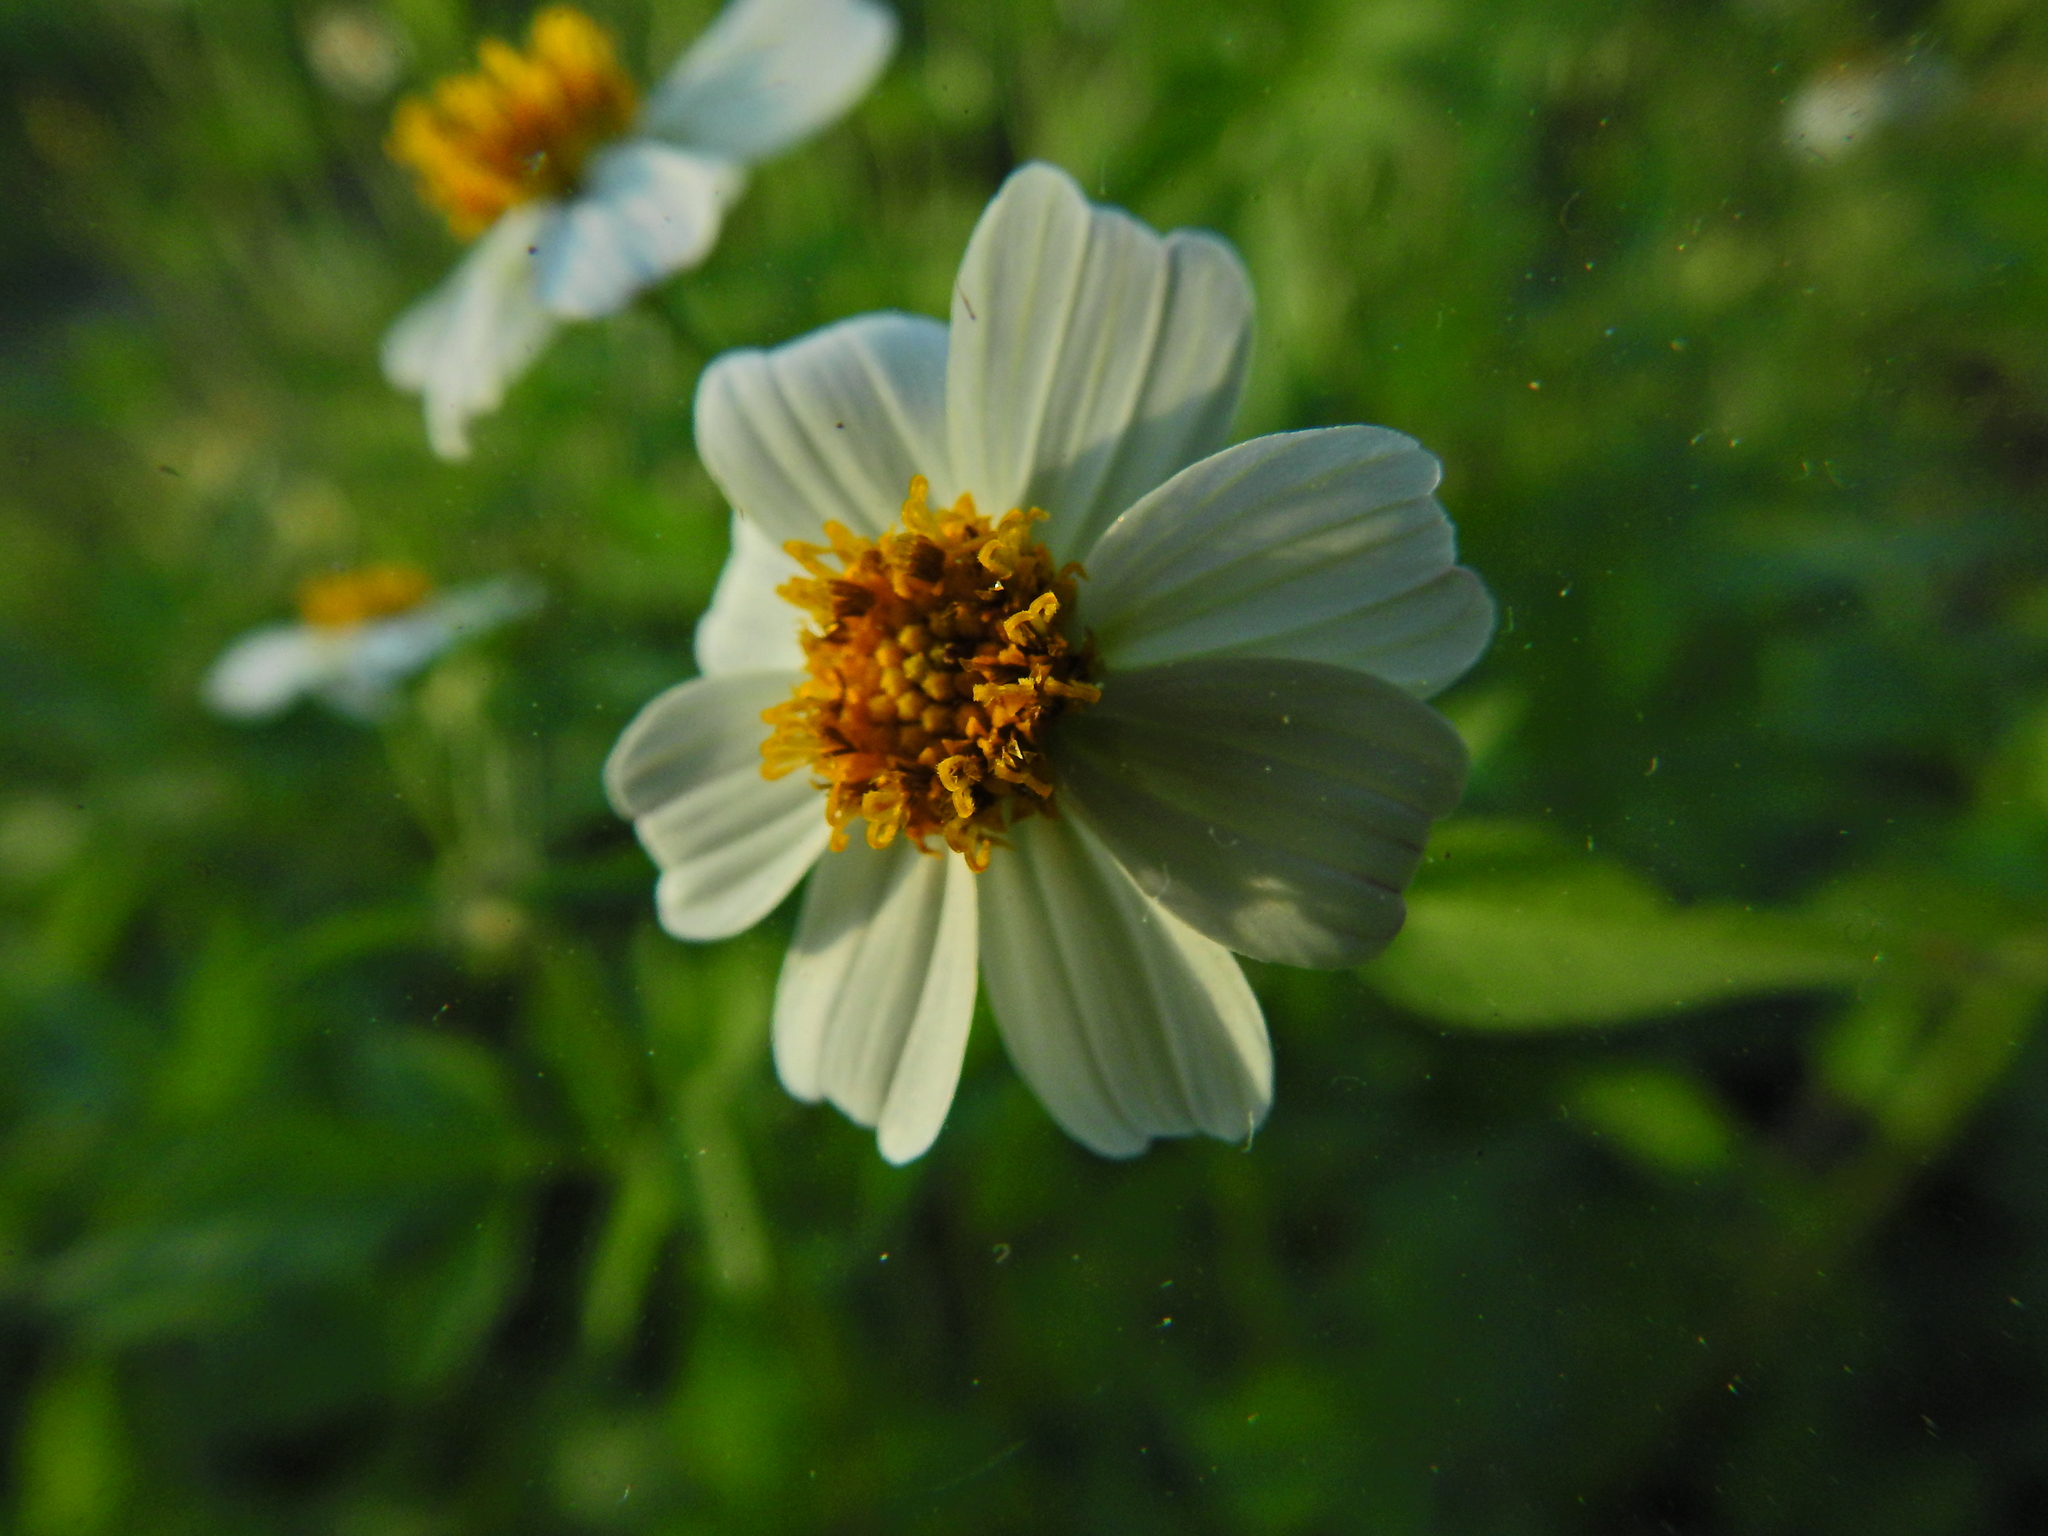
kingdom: Plantae
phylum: Tracheophyta
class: Magnoliopsida
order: Asterales
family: Asteraceae
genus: Bidens
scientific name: Bidens alba
